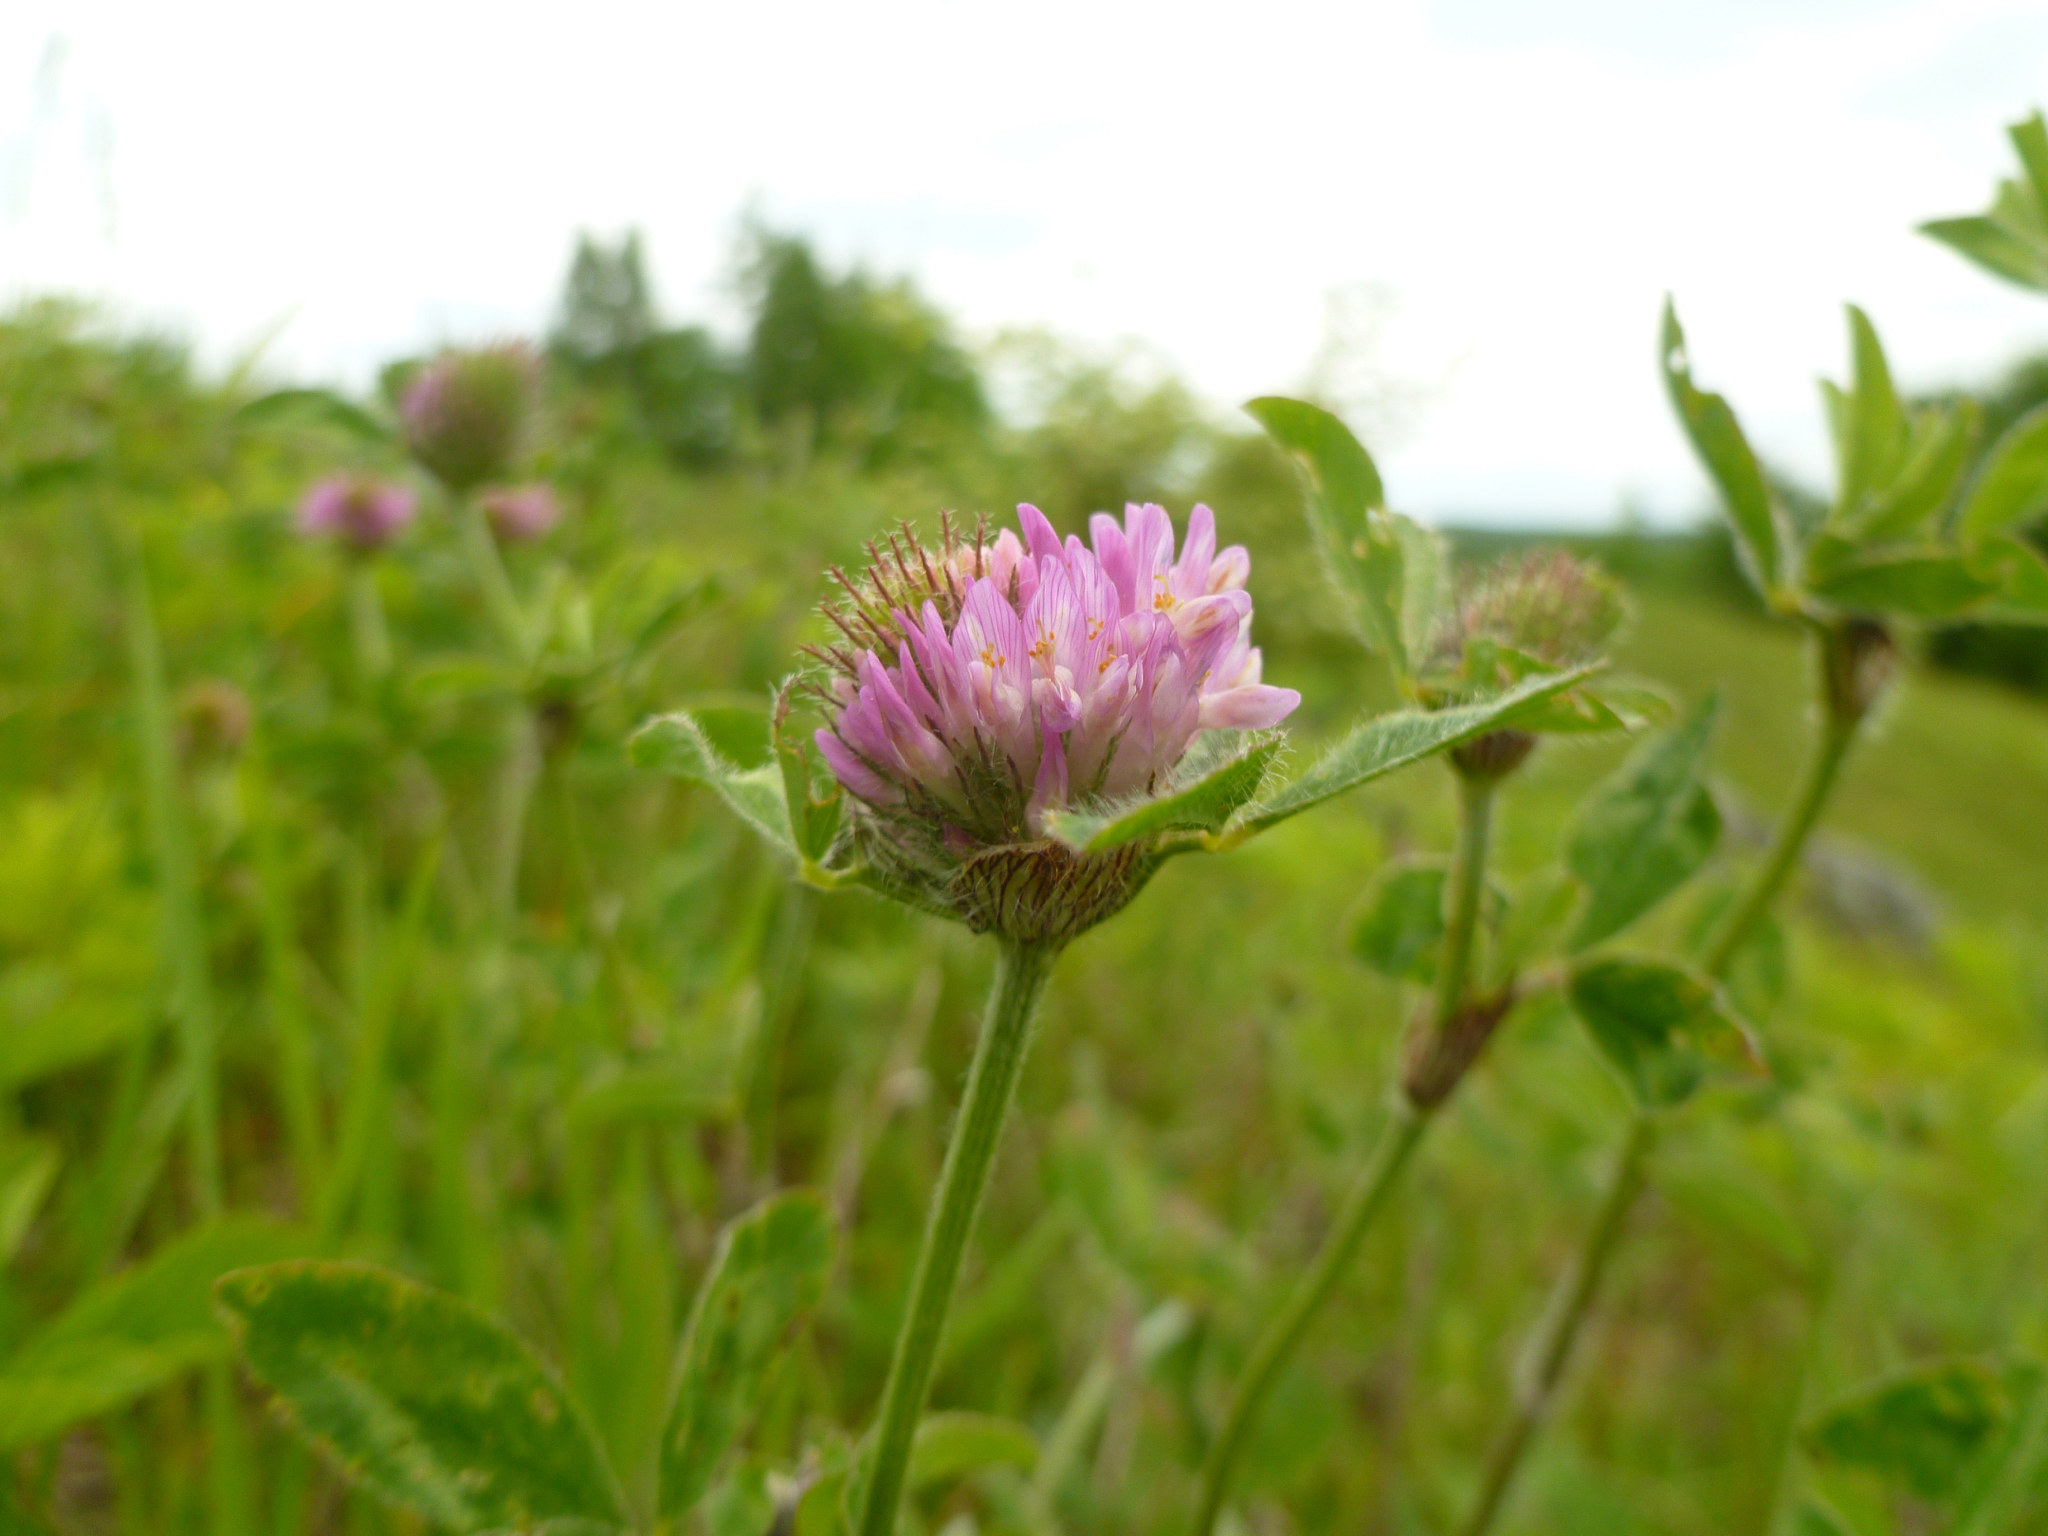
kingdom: Plantae
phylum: Tracheophyta
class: Magnoliopsida
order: Fabales
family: Fabaceae
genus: Trifolium
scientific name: Trifolium pratense
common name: Red clover
